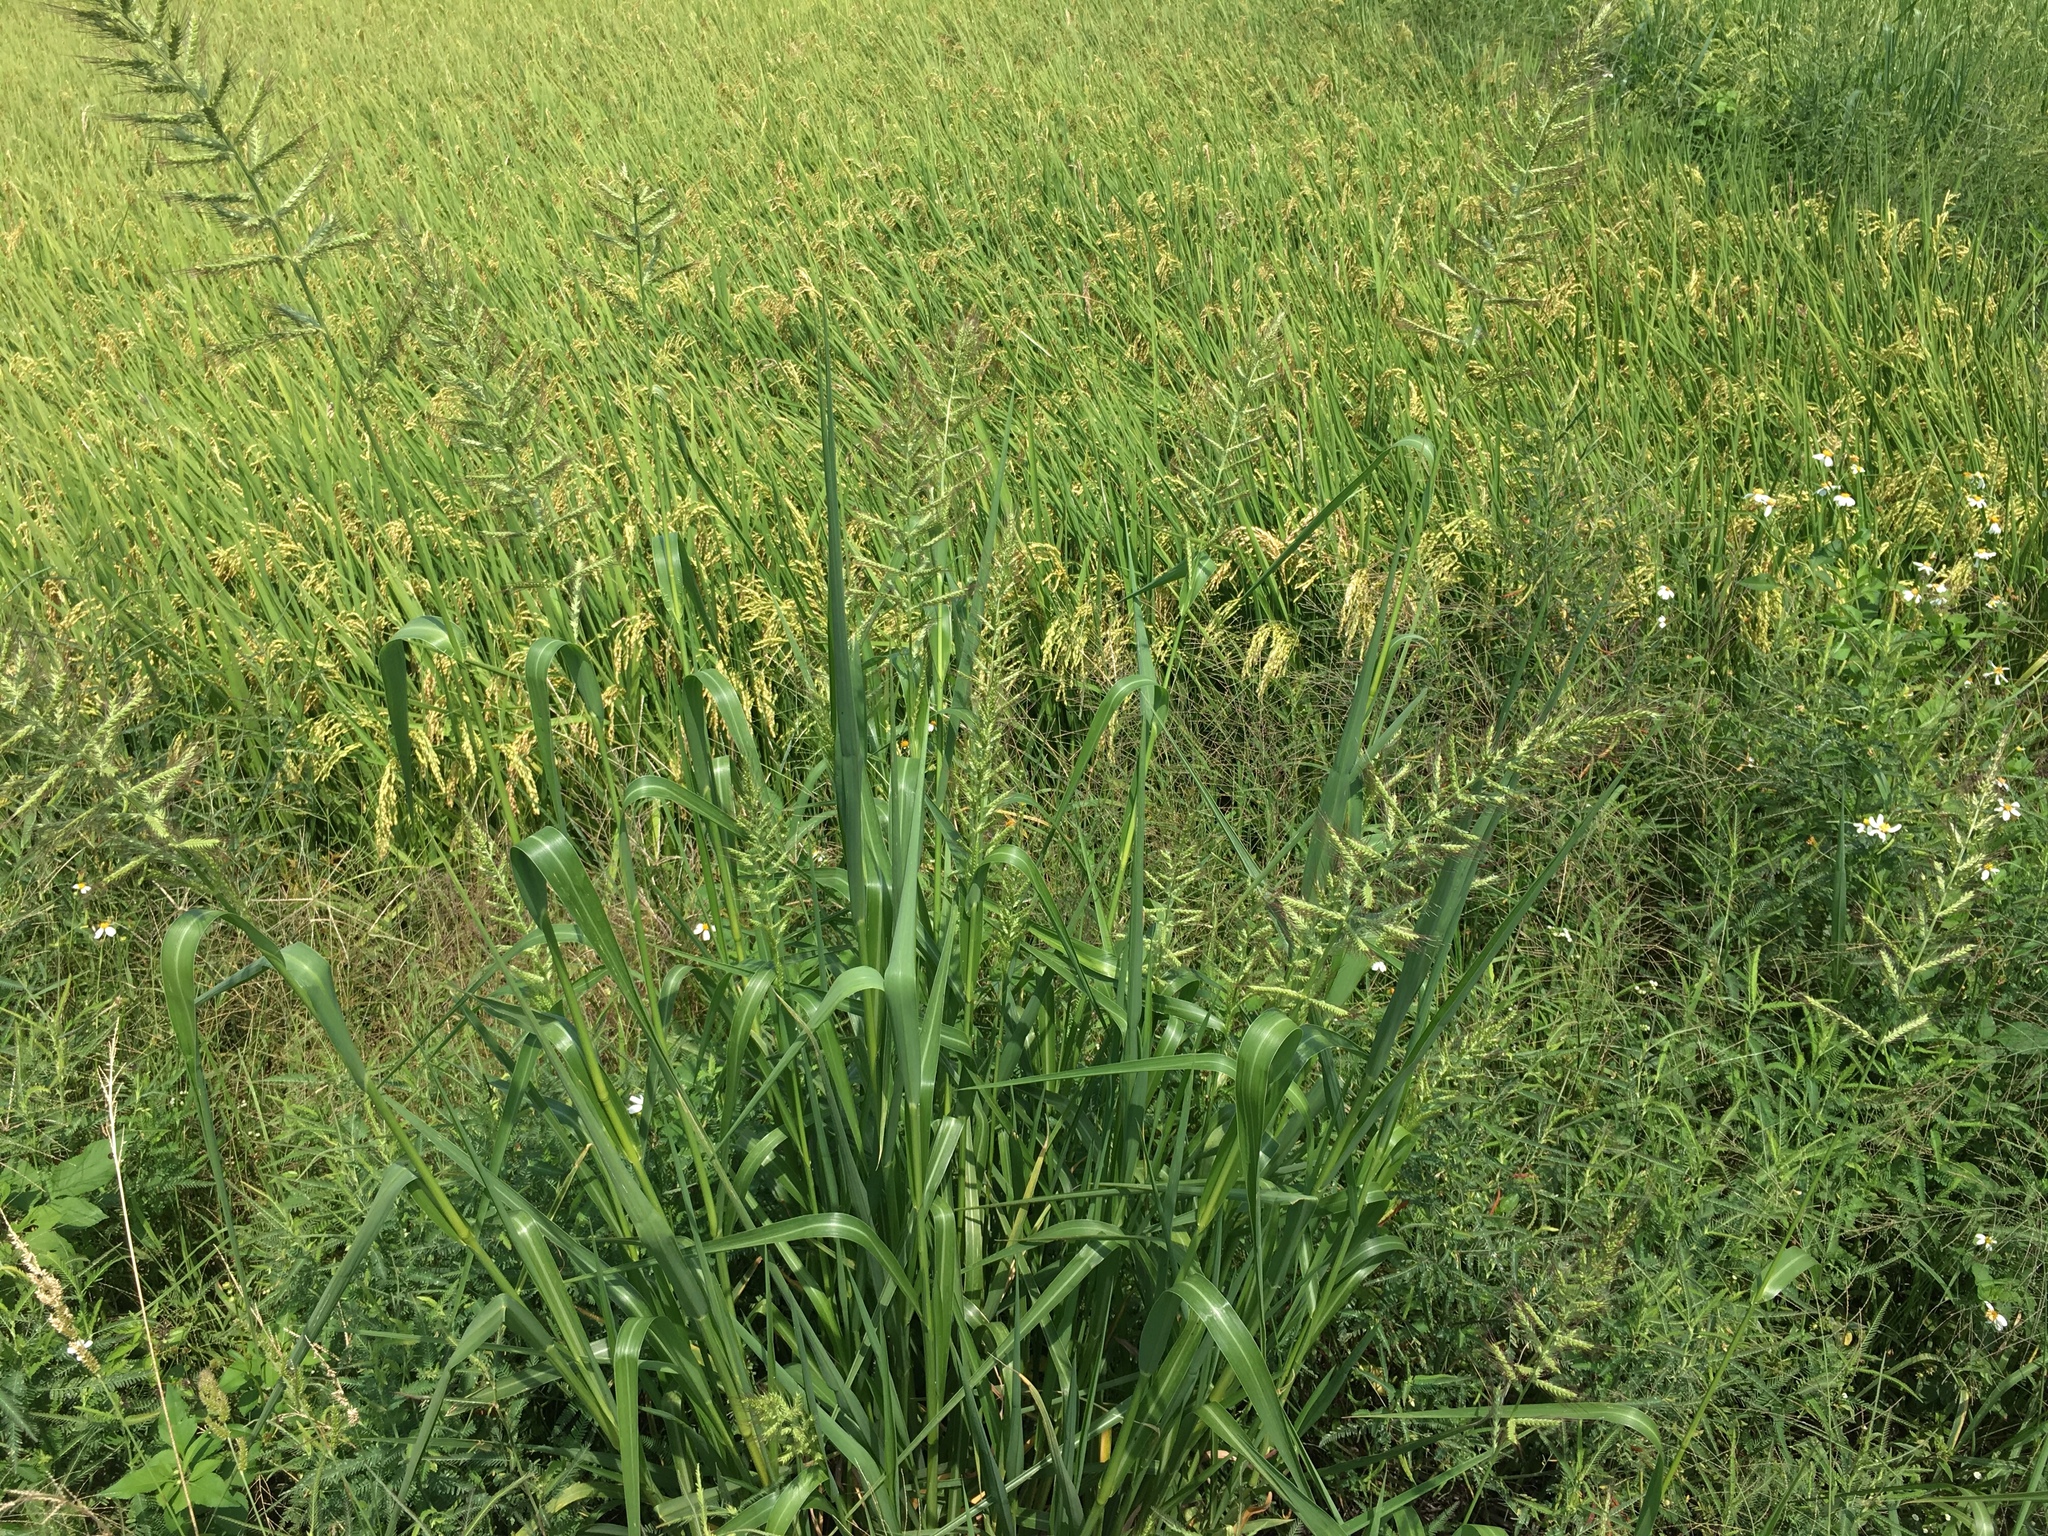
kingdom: Plantae
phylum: Tracheophyta
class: Liliopsida
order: Poales
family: Poaceae
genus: Echinochloa
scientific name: Echinochloa crus-galli
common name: Cockspur
